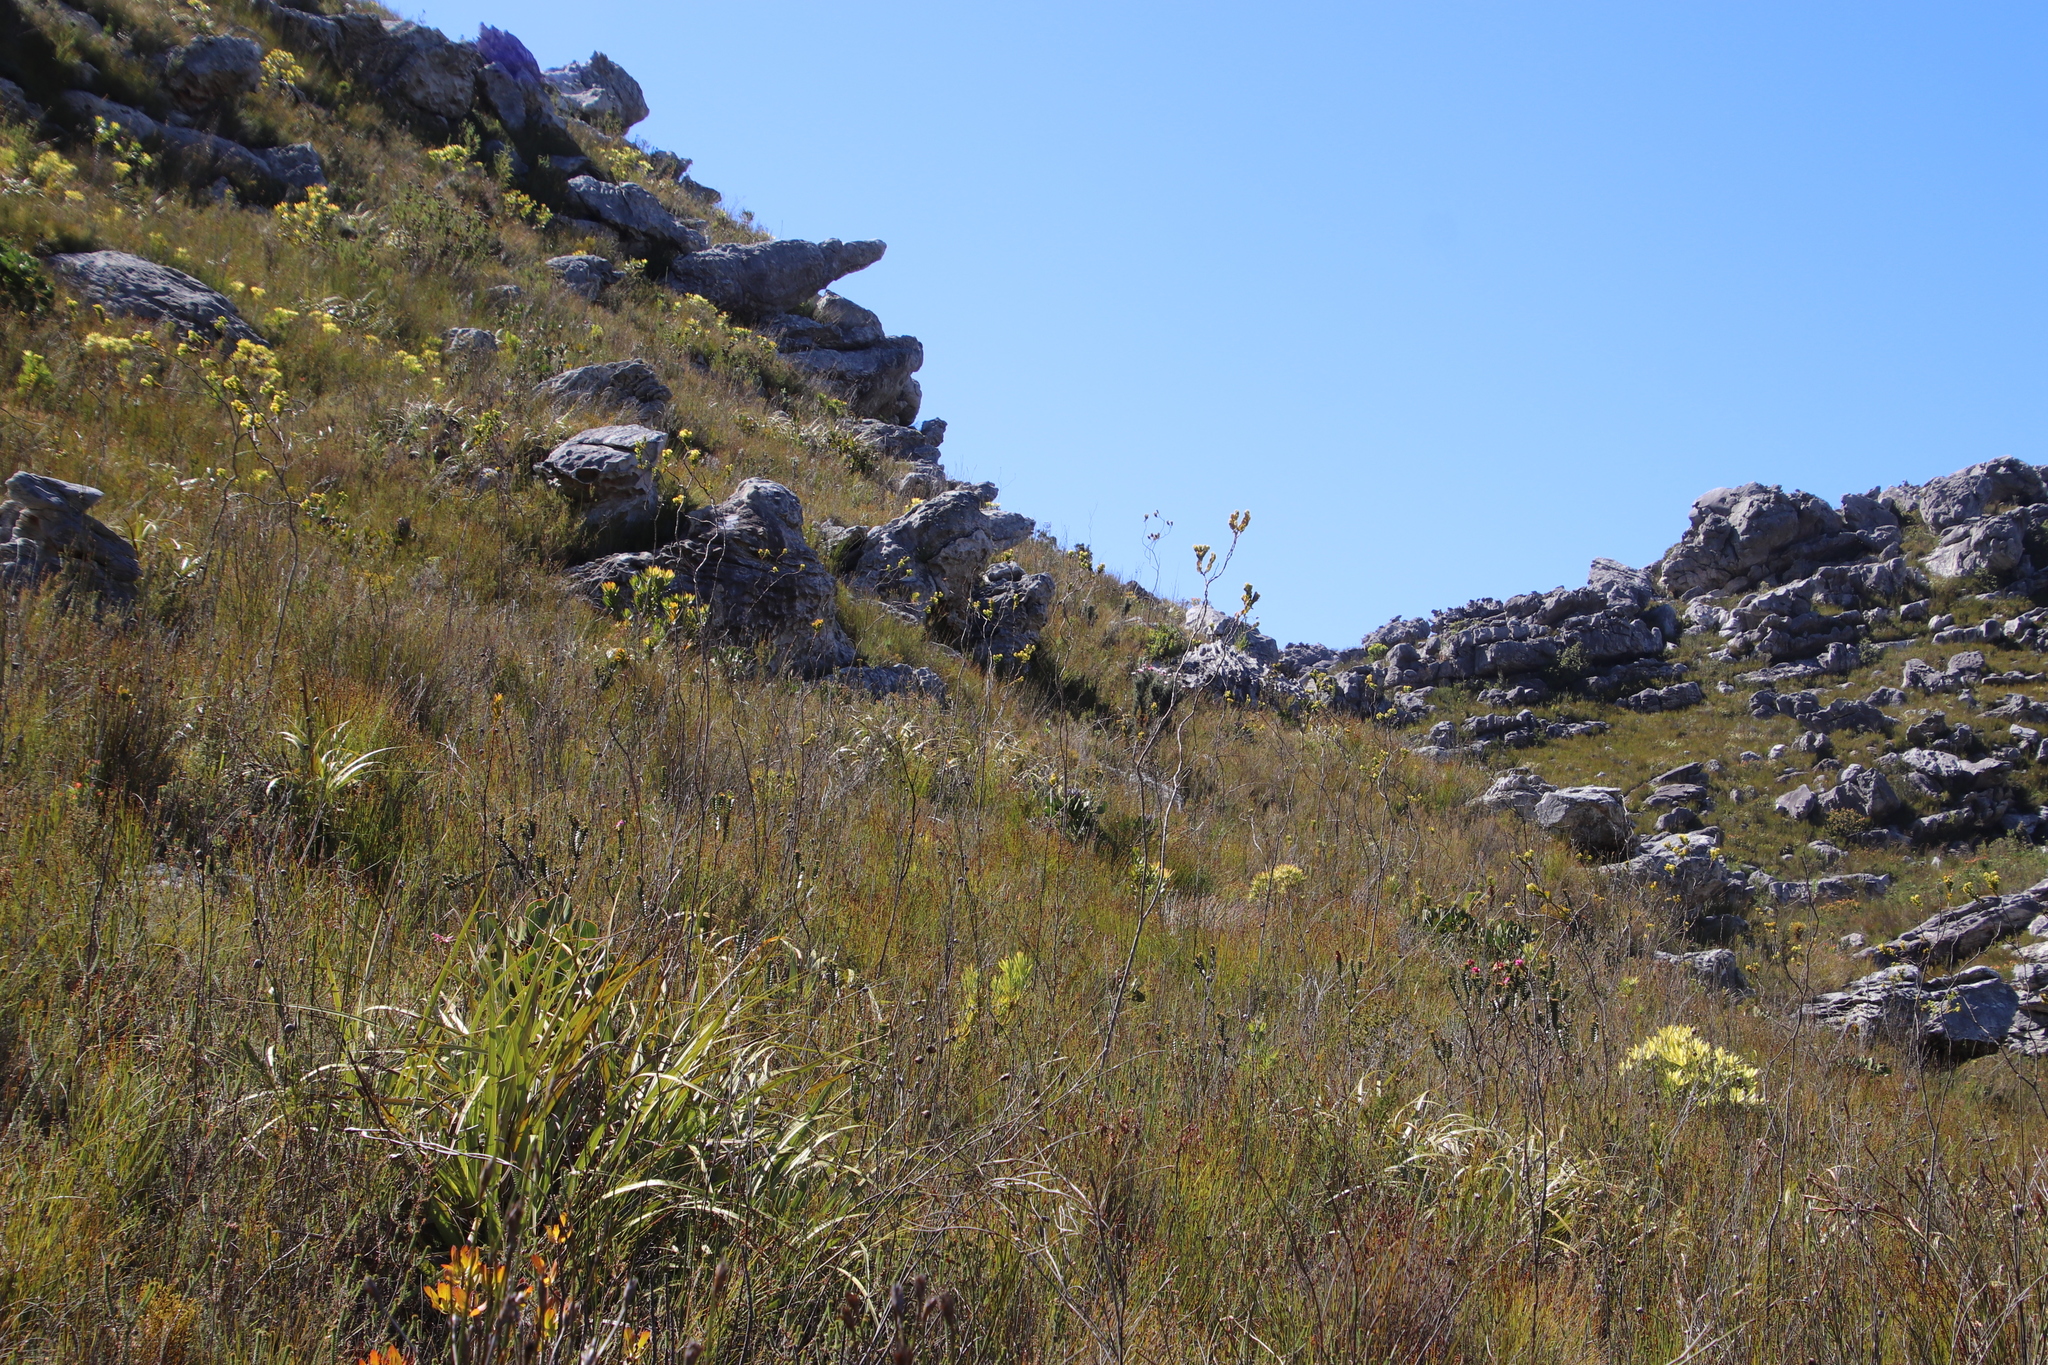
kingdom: Plantae
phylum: Tracheophyta
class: Magnoliopsida
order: Santalales
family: Thesiaceae
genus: Thesium
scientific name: Thesium euphorbioides
